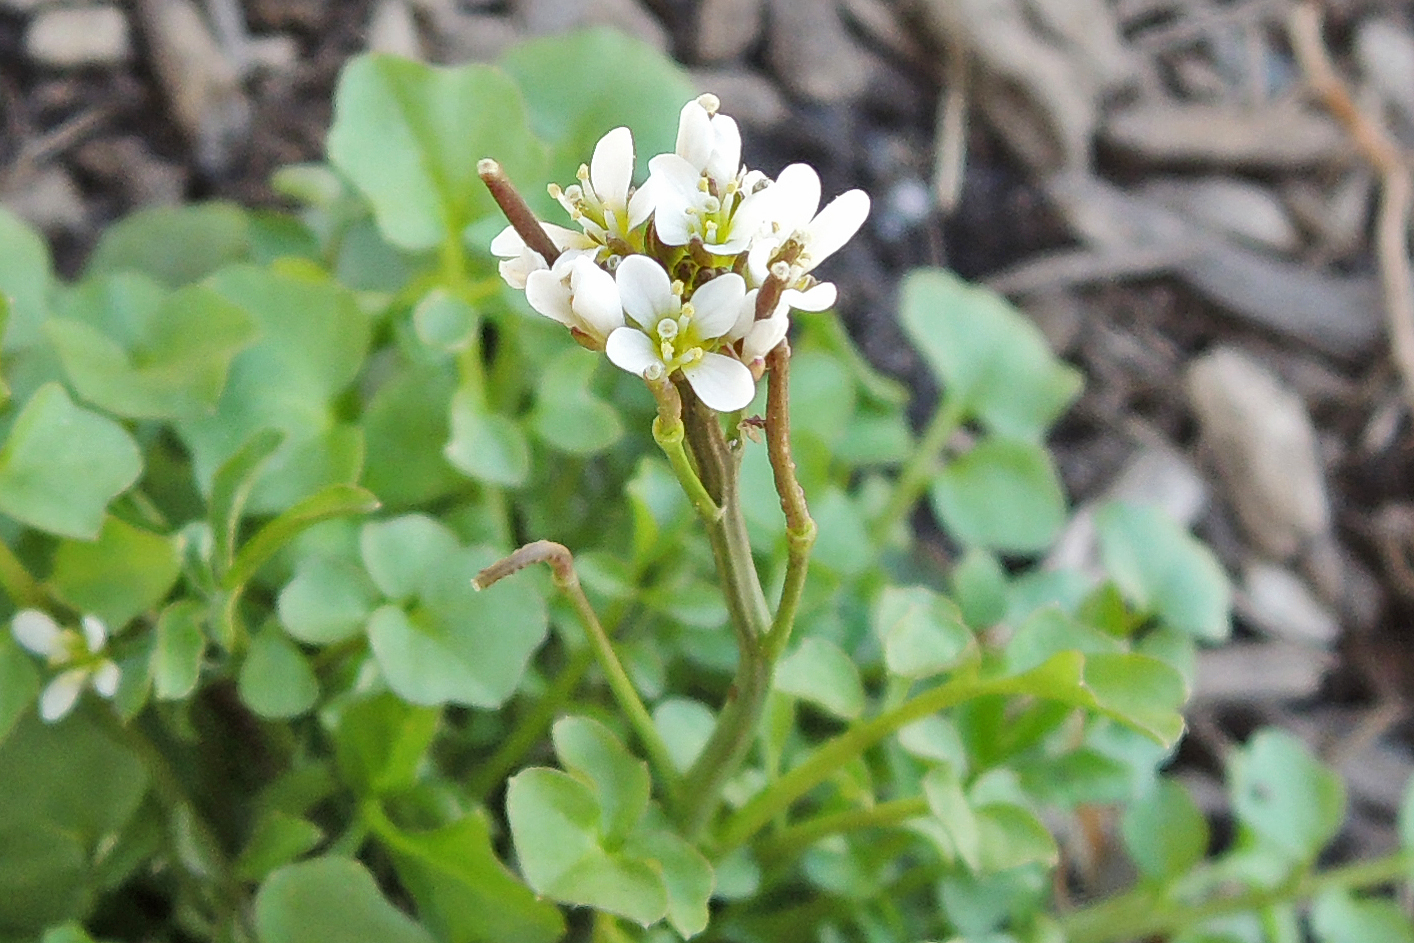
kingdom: Plantae
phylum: Tracheophyta
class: Magnoliopsida
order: Brassicales
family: Brassicaceae
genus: Cardamine
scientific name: Cardamine hirsuta
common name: Hairy bittercress
